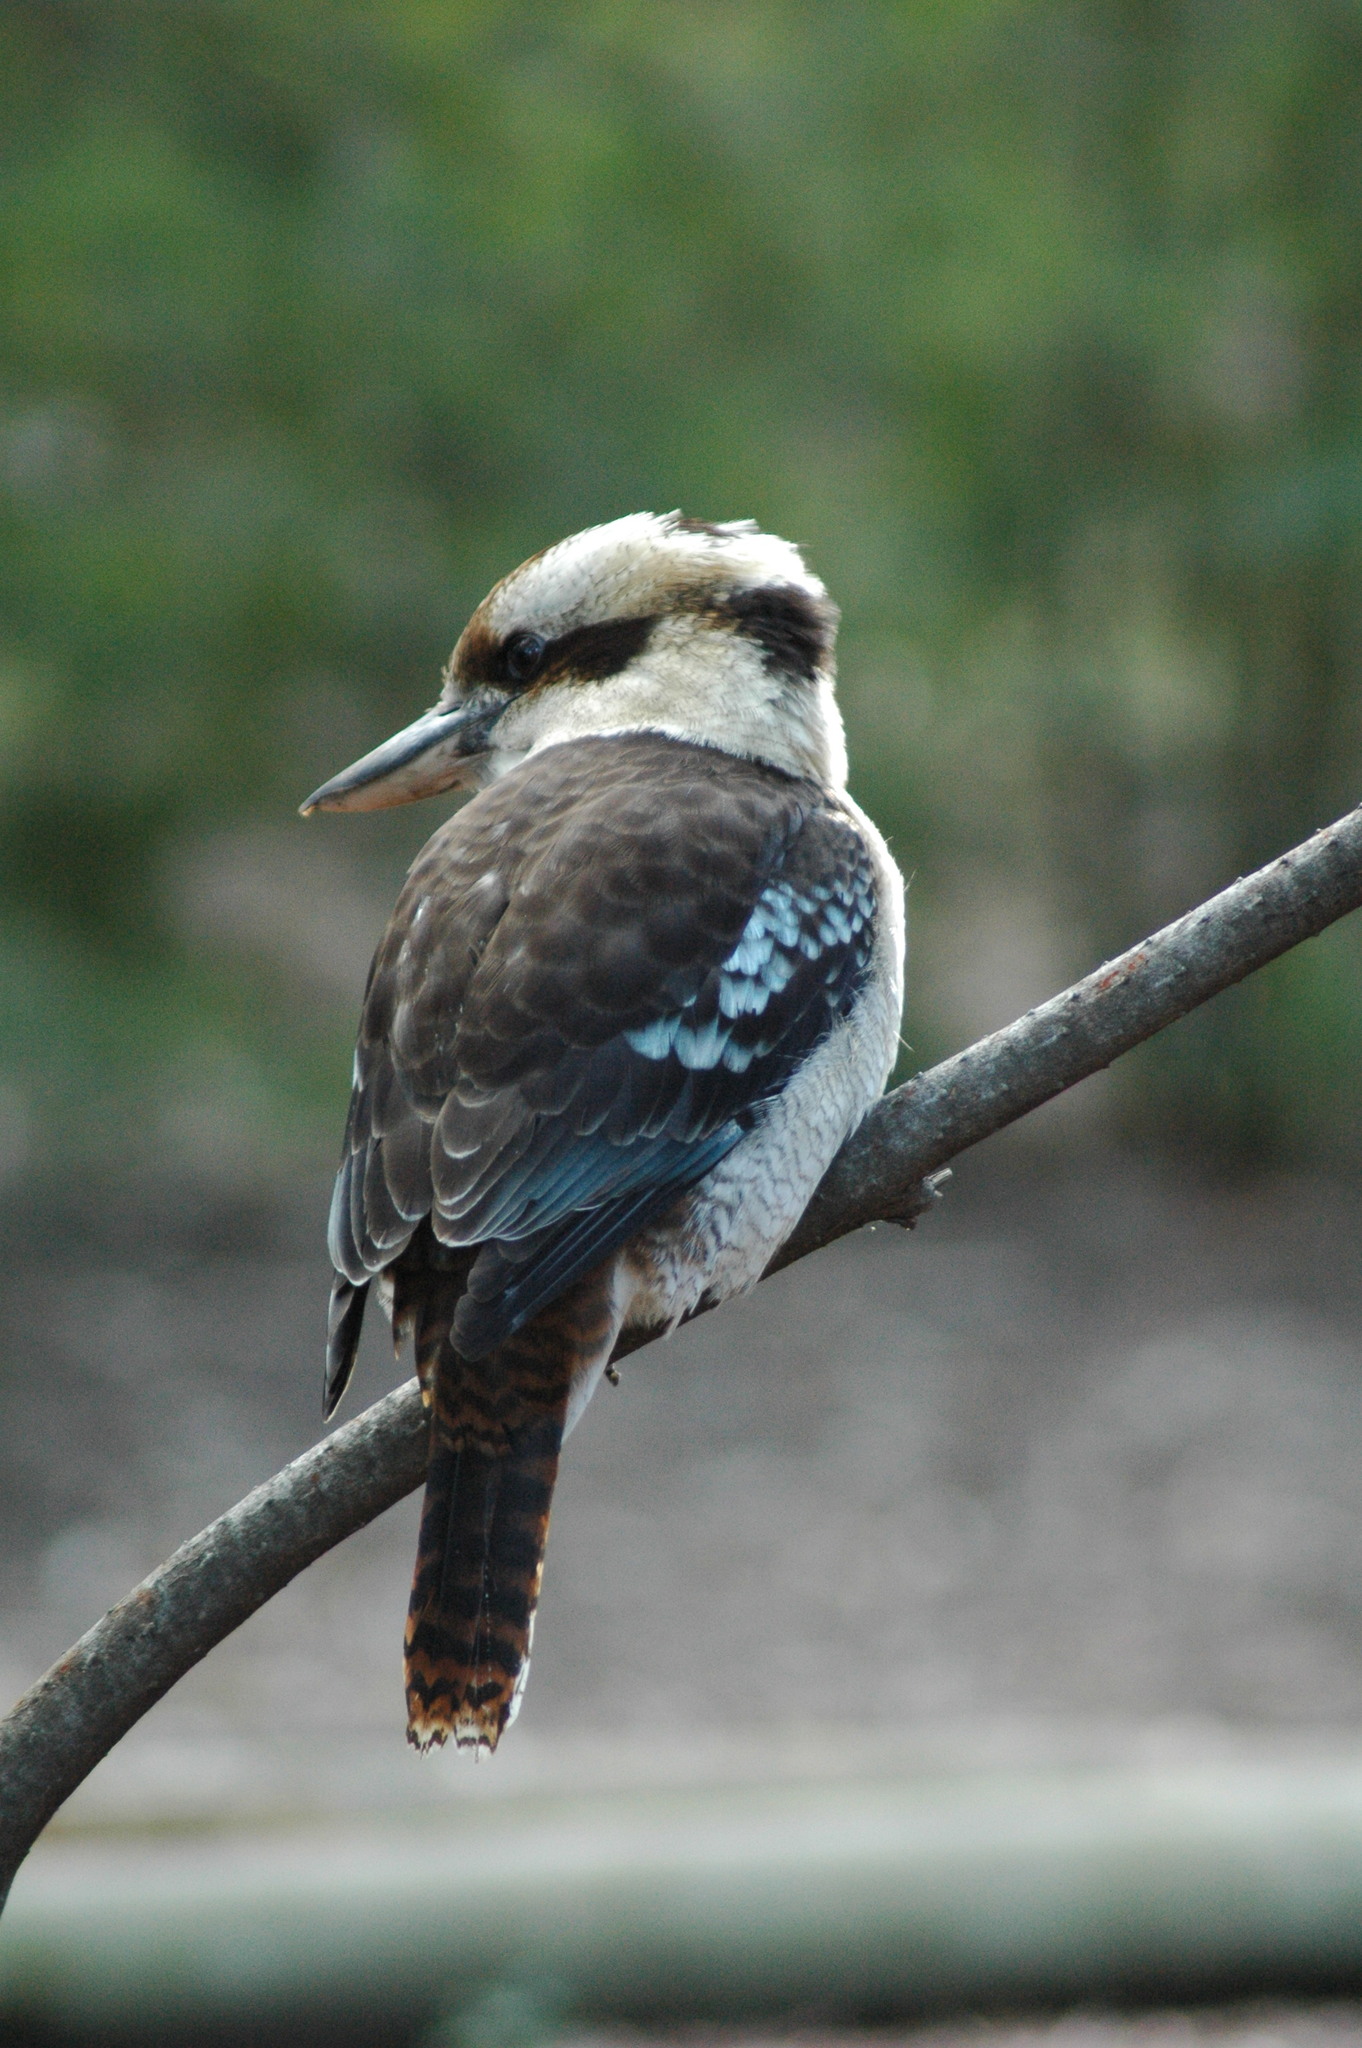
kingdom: Animalia
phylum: Chordata
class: Aves
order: Coraciiformes
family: Alcedinidae
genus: Dacelo
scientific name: Dacelo novaeguineae
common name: Laughing kookaburra
